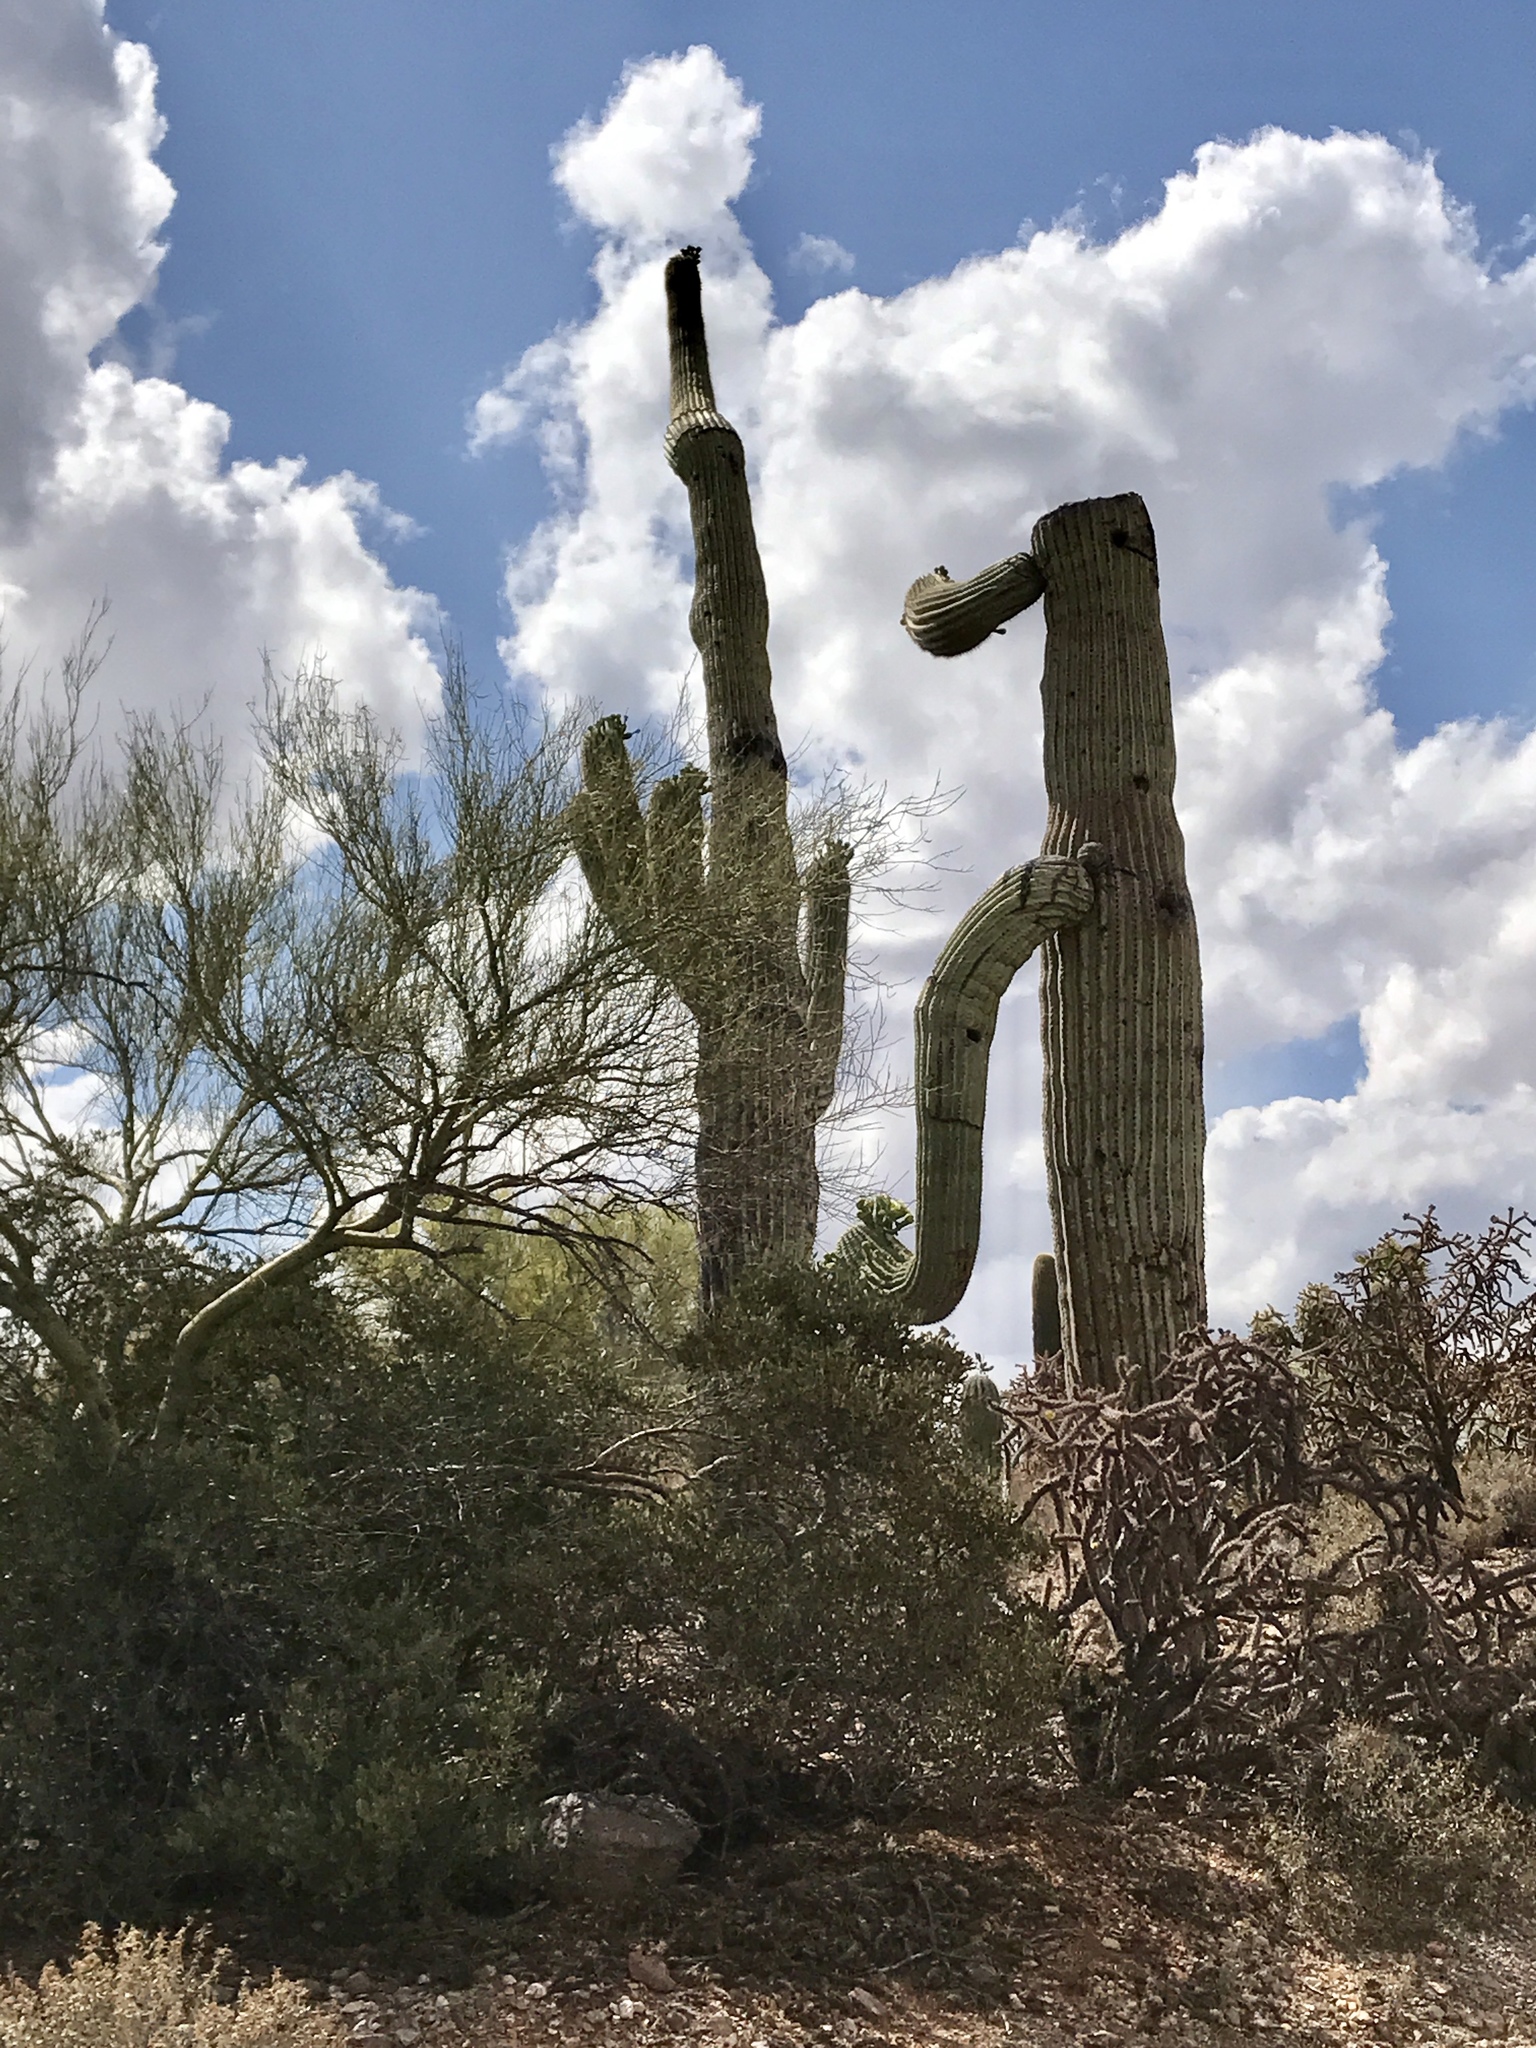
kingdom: Plantae
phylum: Tracheophyta
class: Magnoliopsida
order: Caryophyllales
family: Cactaceae
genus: Carnegiea
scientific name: Carnegiea gigantea
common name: Saguaro
